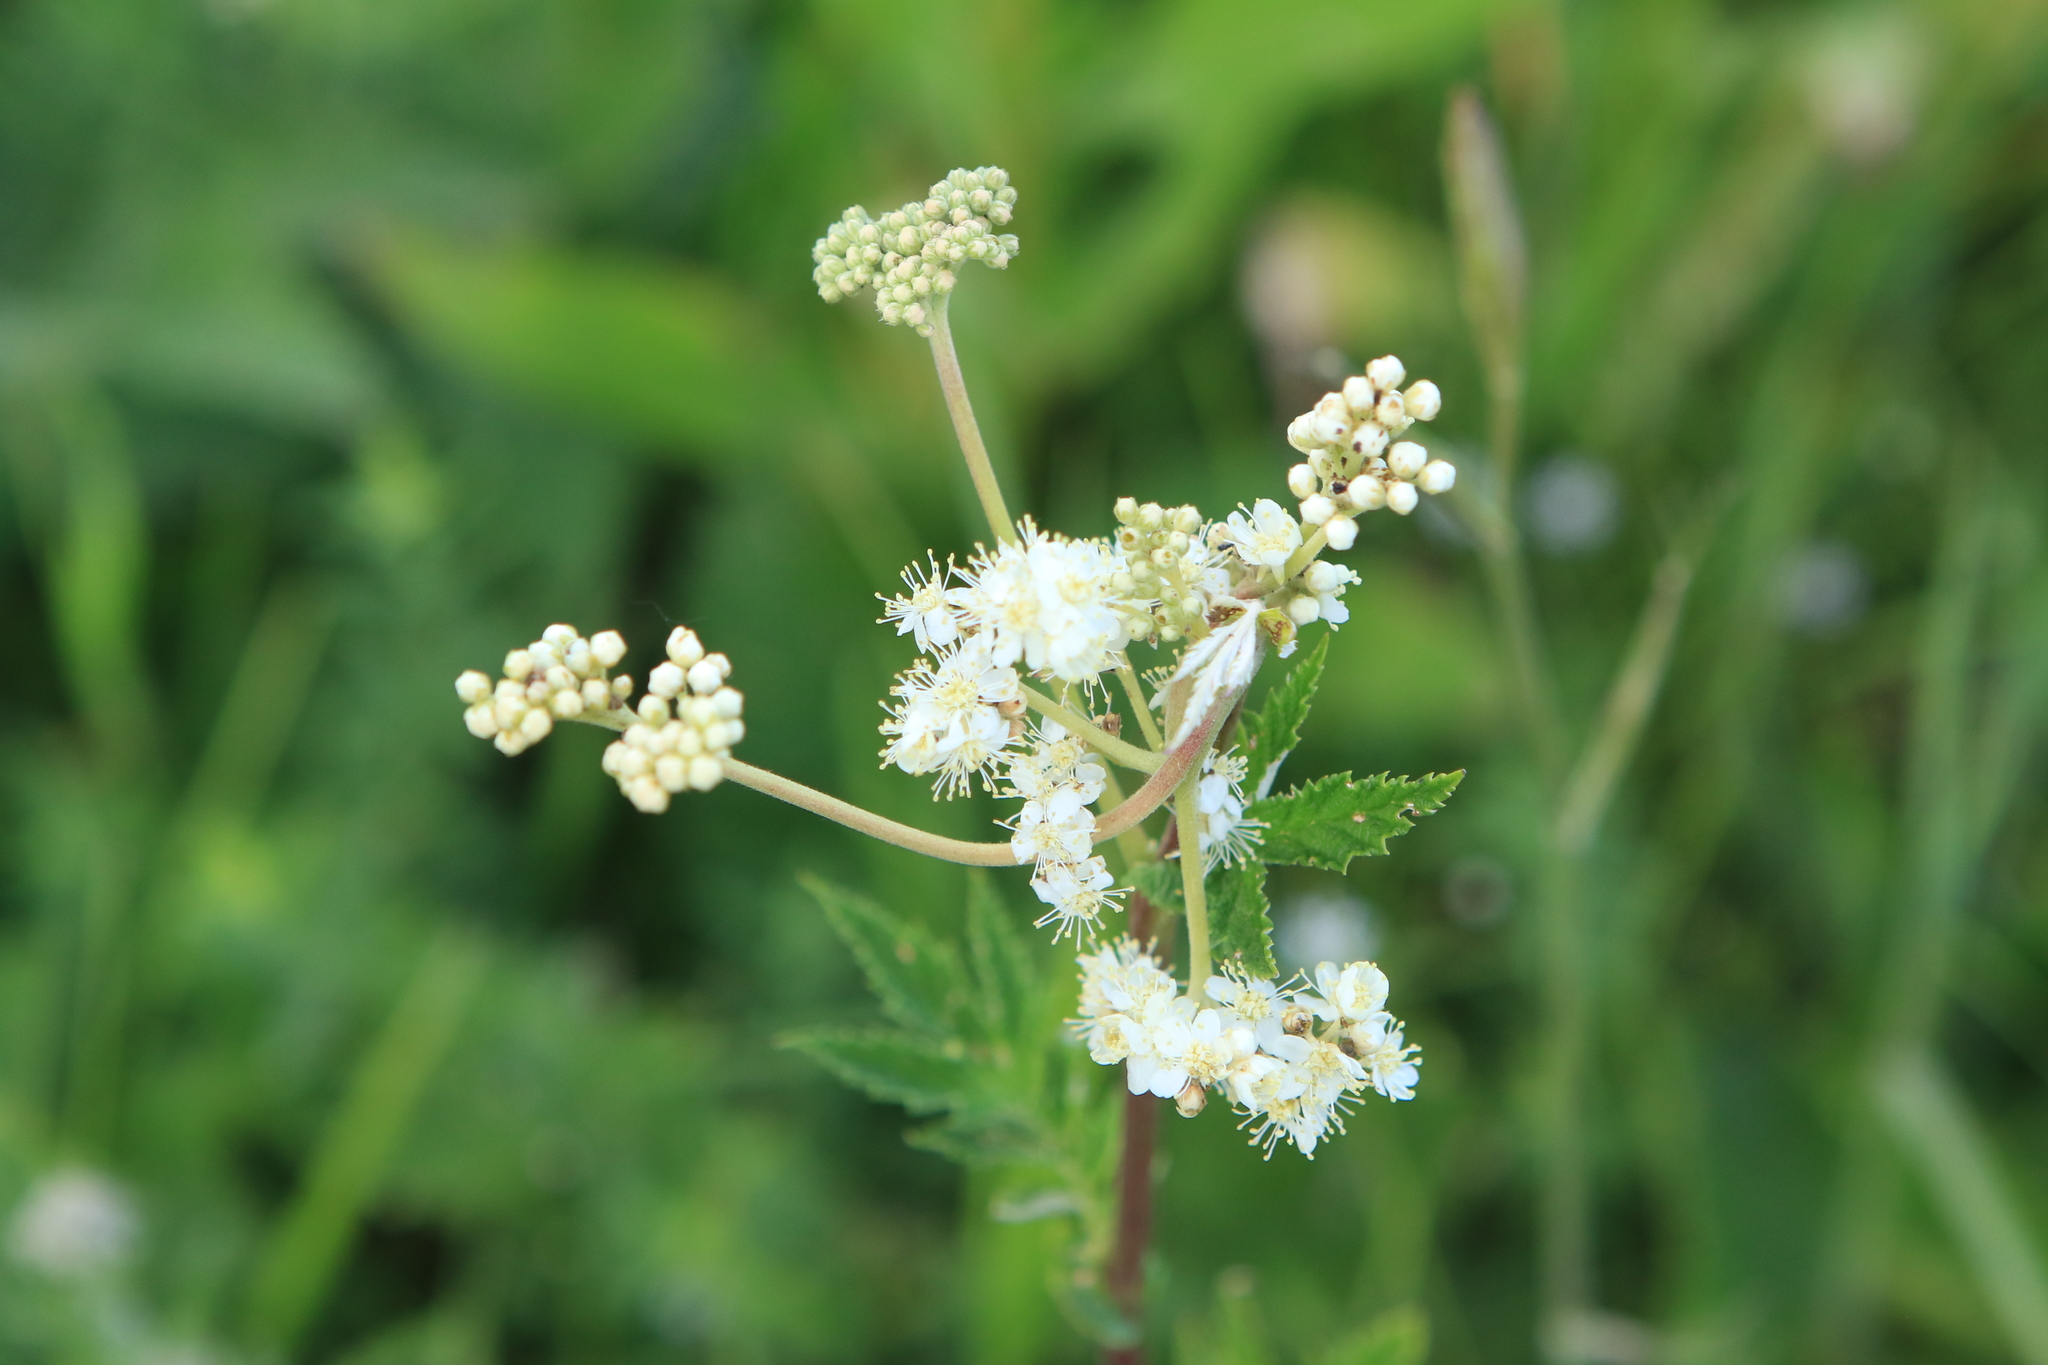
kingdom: Plantae
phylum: Tracheophyta
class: Magnoliopsida
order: Rosales
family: Rosaceae
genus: Filipendula
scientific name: Filipendula ulmaria
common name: Meadowsweet
